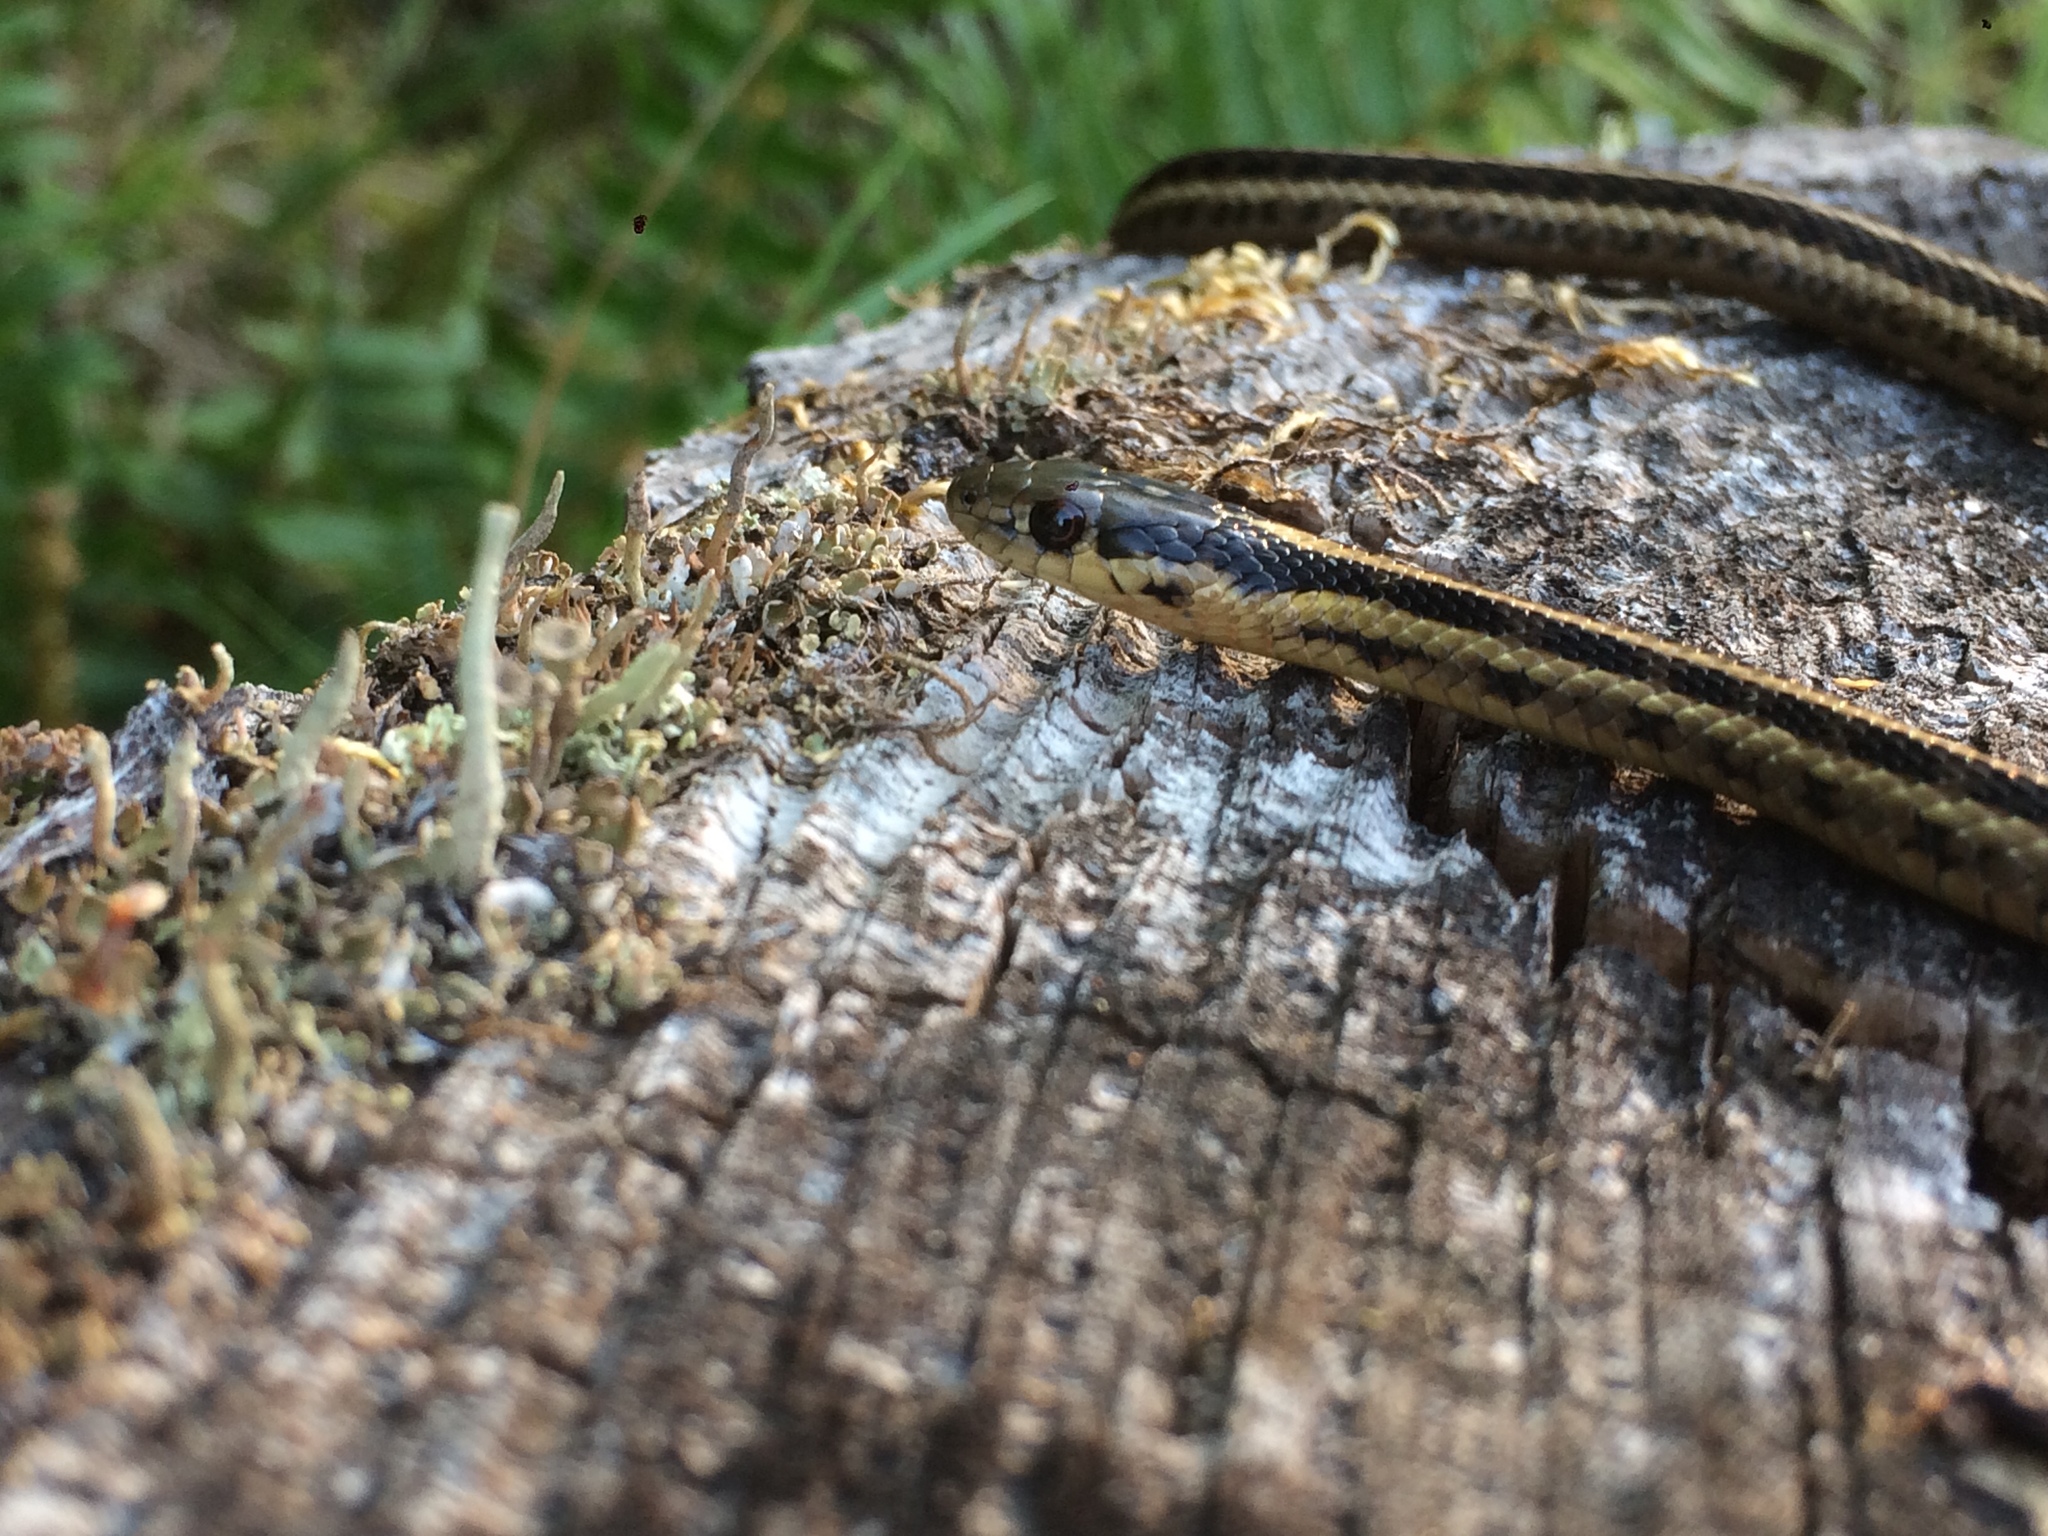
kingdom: Animalia
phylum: Chordata
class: Squamata
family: Colubridae
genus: Thamnophis
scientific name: Thamnophis ordinoides
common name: Northwestern garter snake
